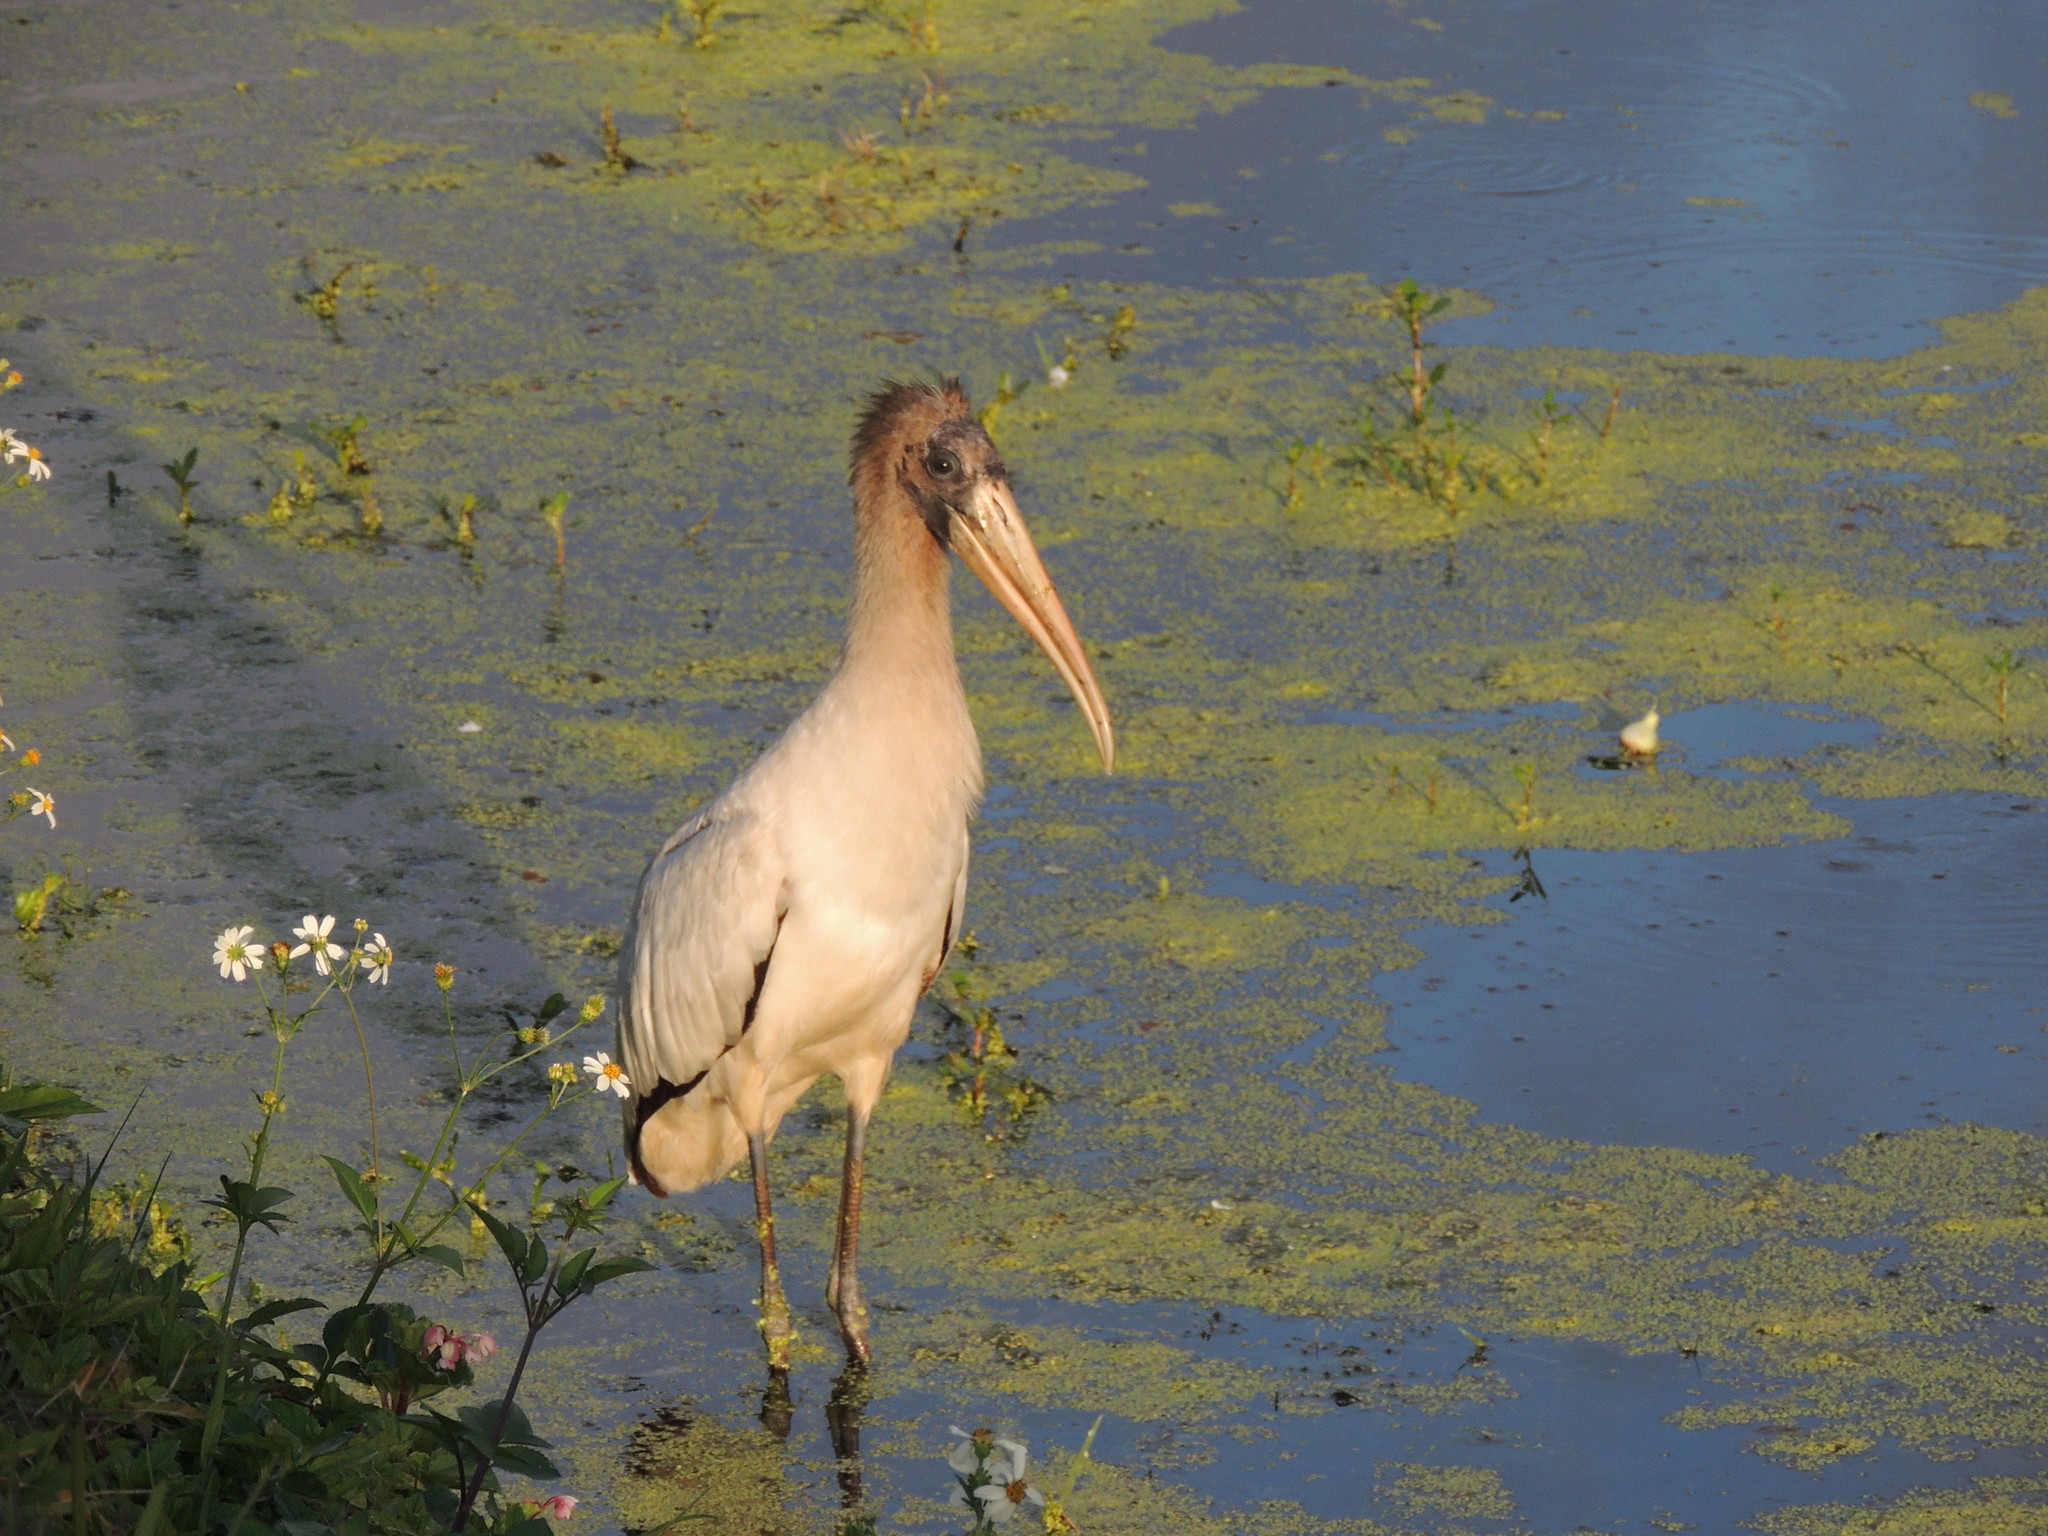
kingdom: Animalia
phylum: Chordata
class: Aves
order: Ciconiiformes
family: Ciconiidae
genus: Mycteria
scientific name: Mycteria americana
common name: Wood stork
